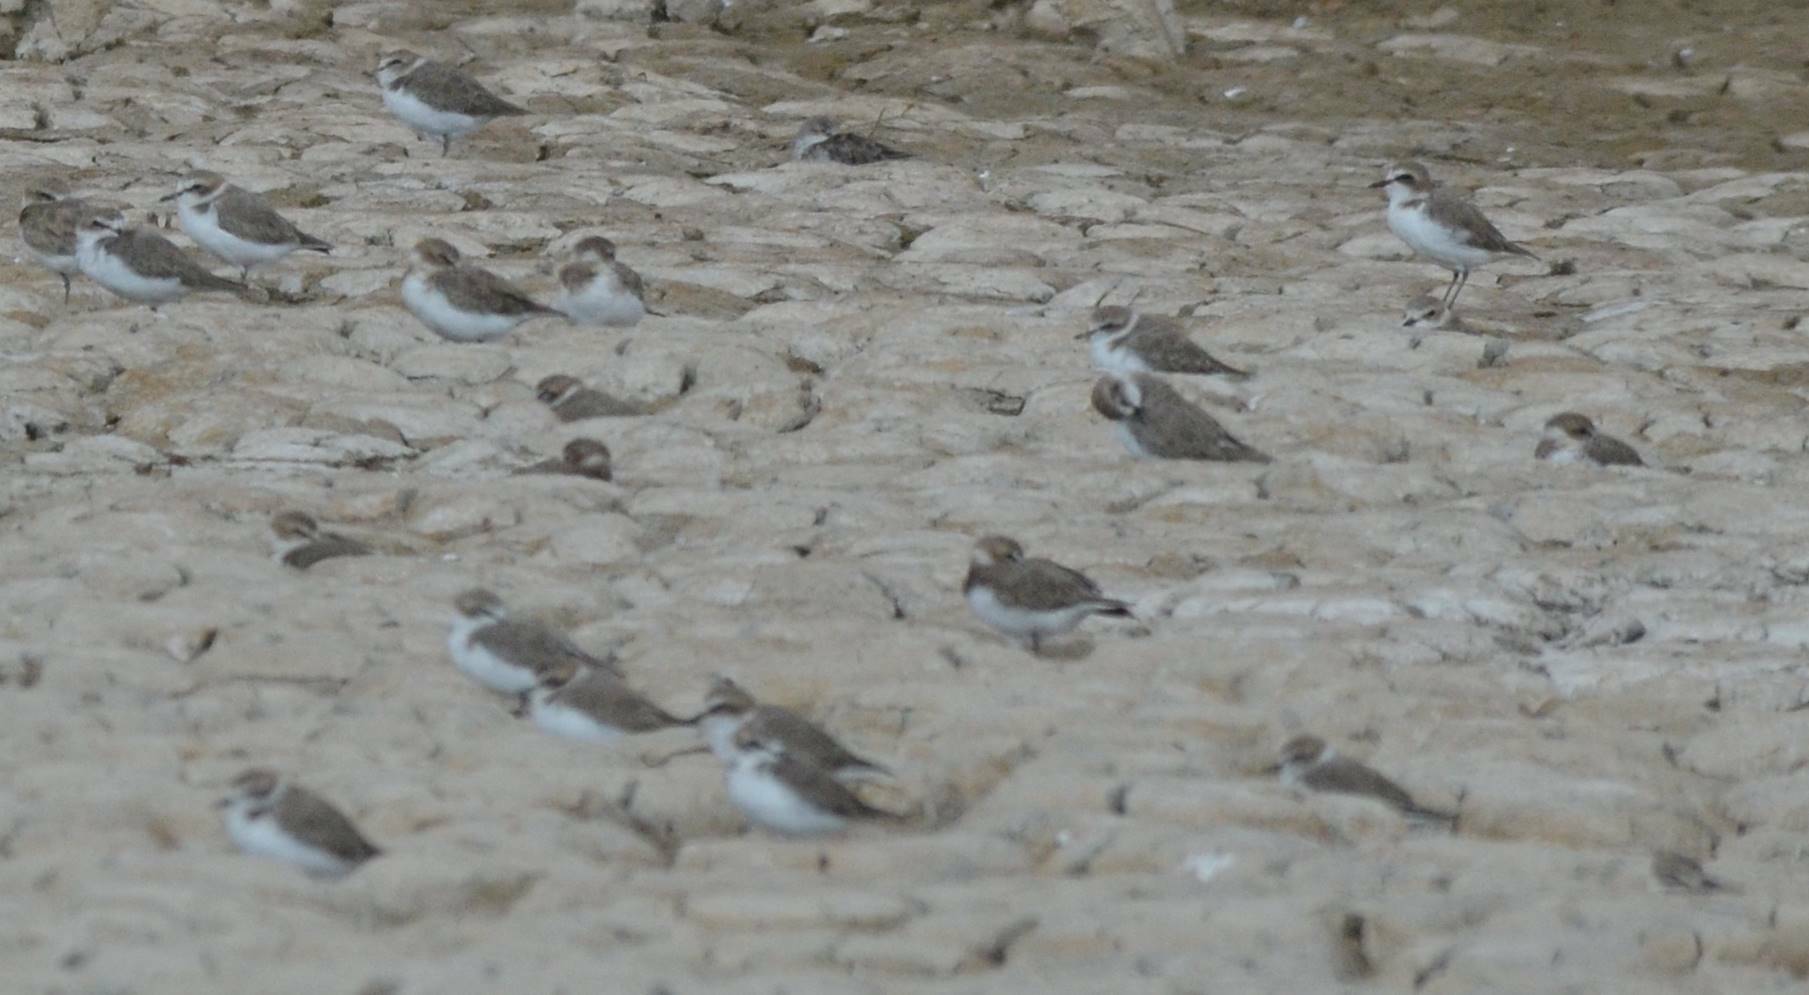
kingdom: Animalia
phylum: Chordata
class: Aves
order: Charadriiformes
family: Charadriidae
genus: Charadrius
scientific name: Charadrius alexandrinus
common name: Kentish plover
